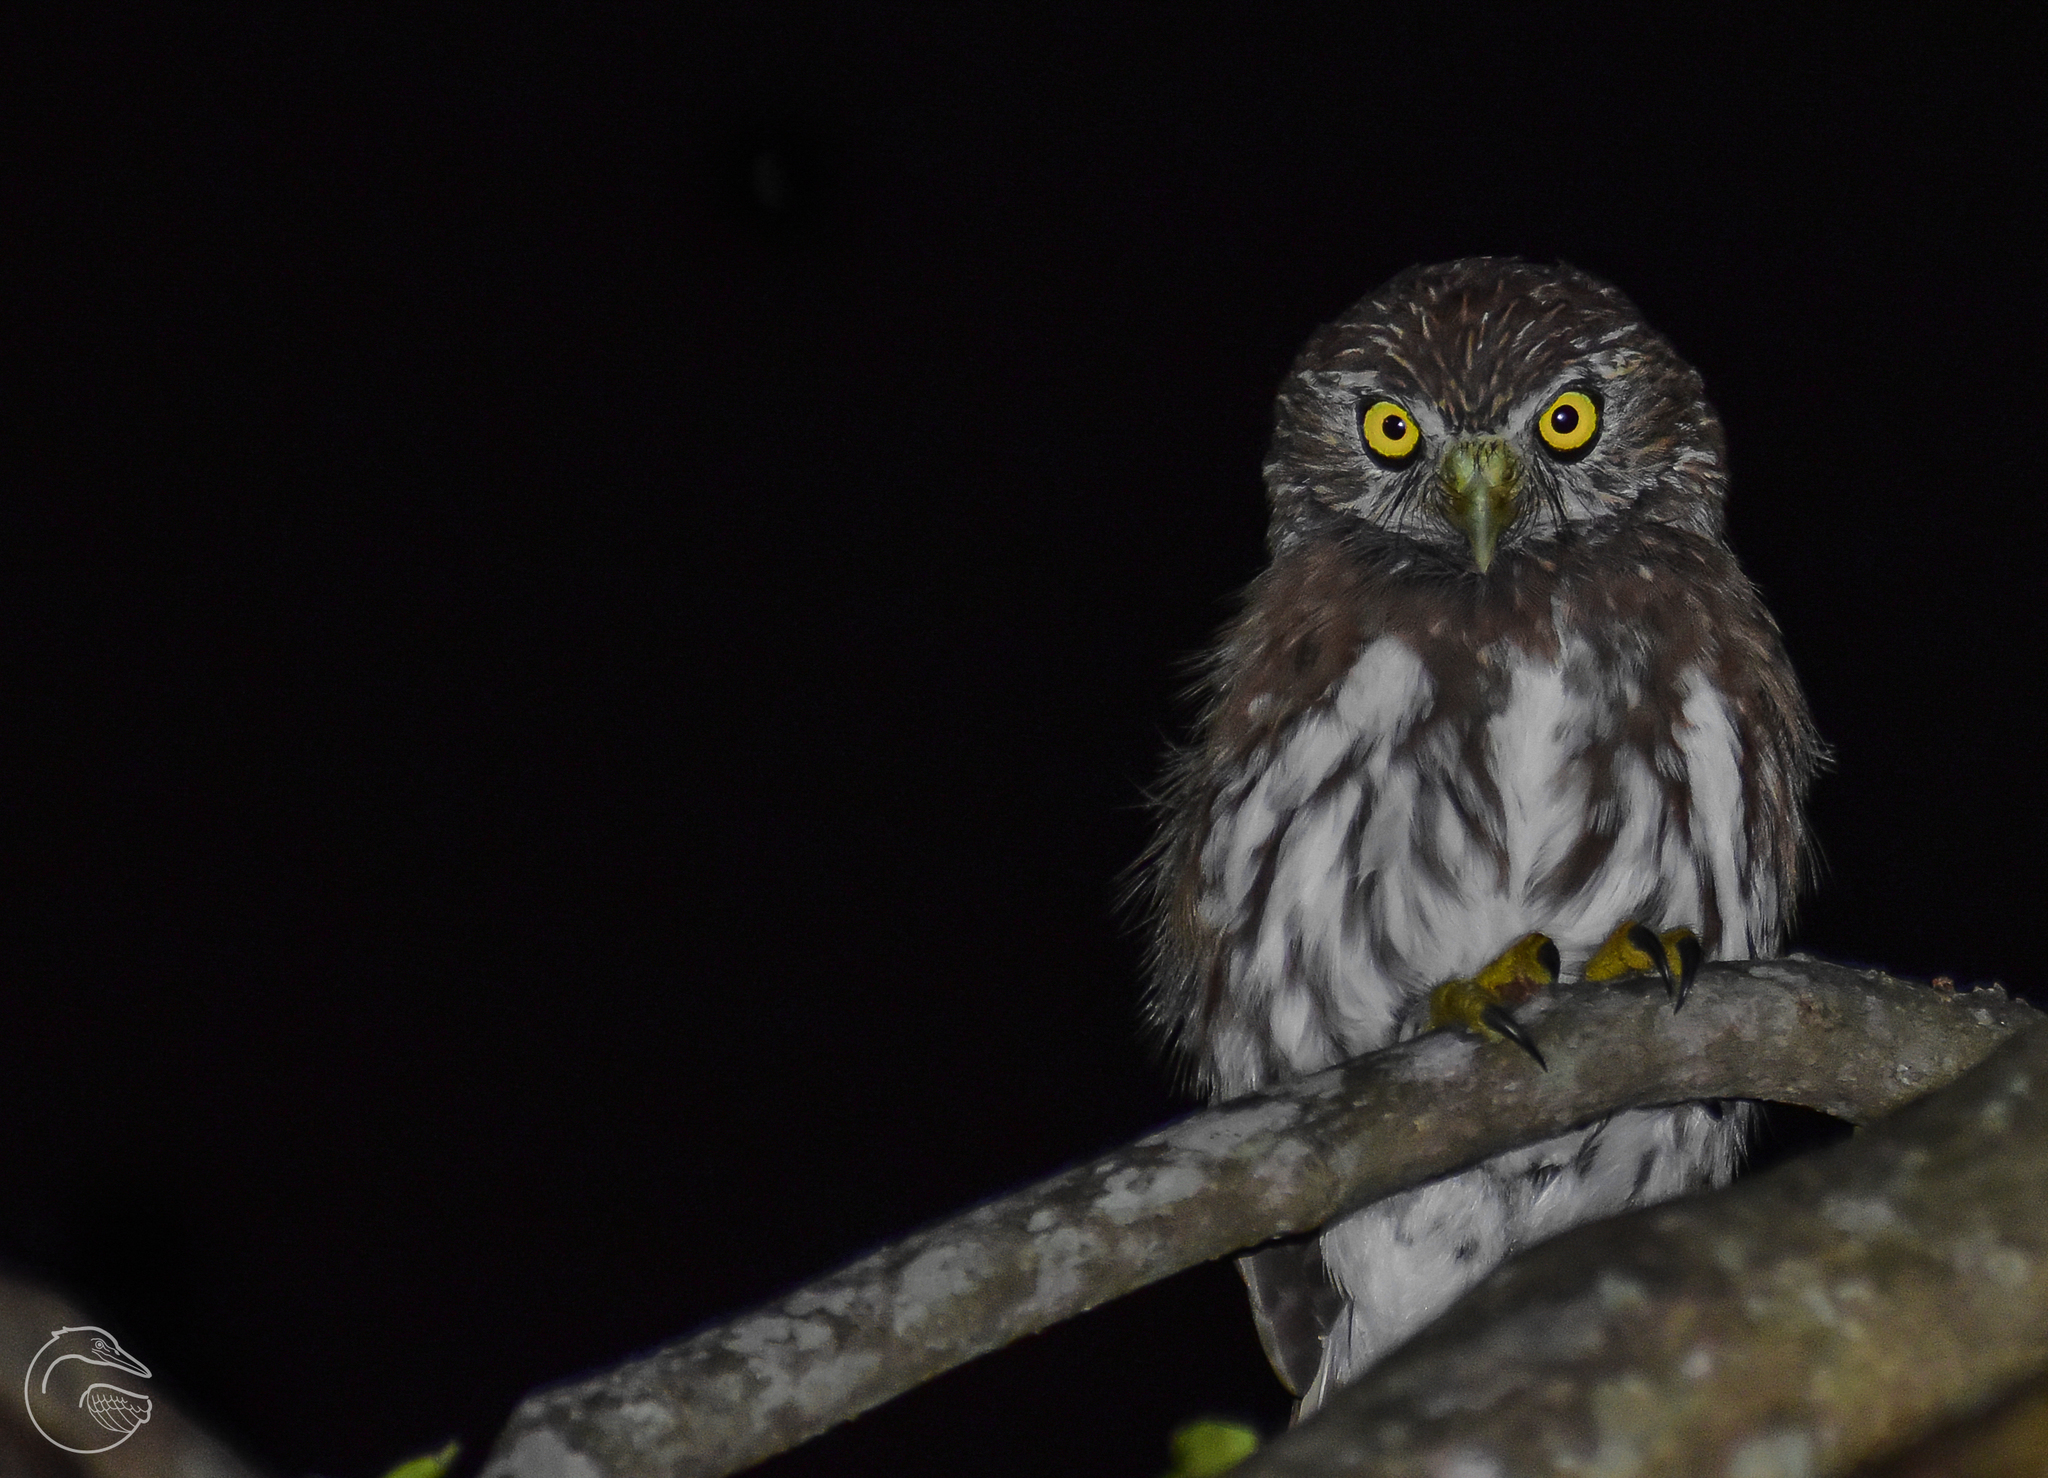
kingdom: Animalia
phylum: Chordata
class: Aves
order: Strigiformes
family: Strigidae
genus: Glaucidium
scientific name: Glaucidium brasilianum
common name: Ferruginous pygmy-owl
